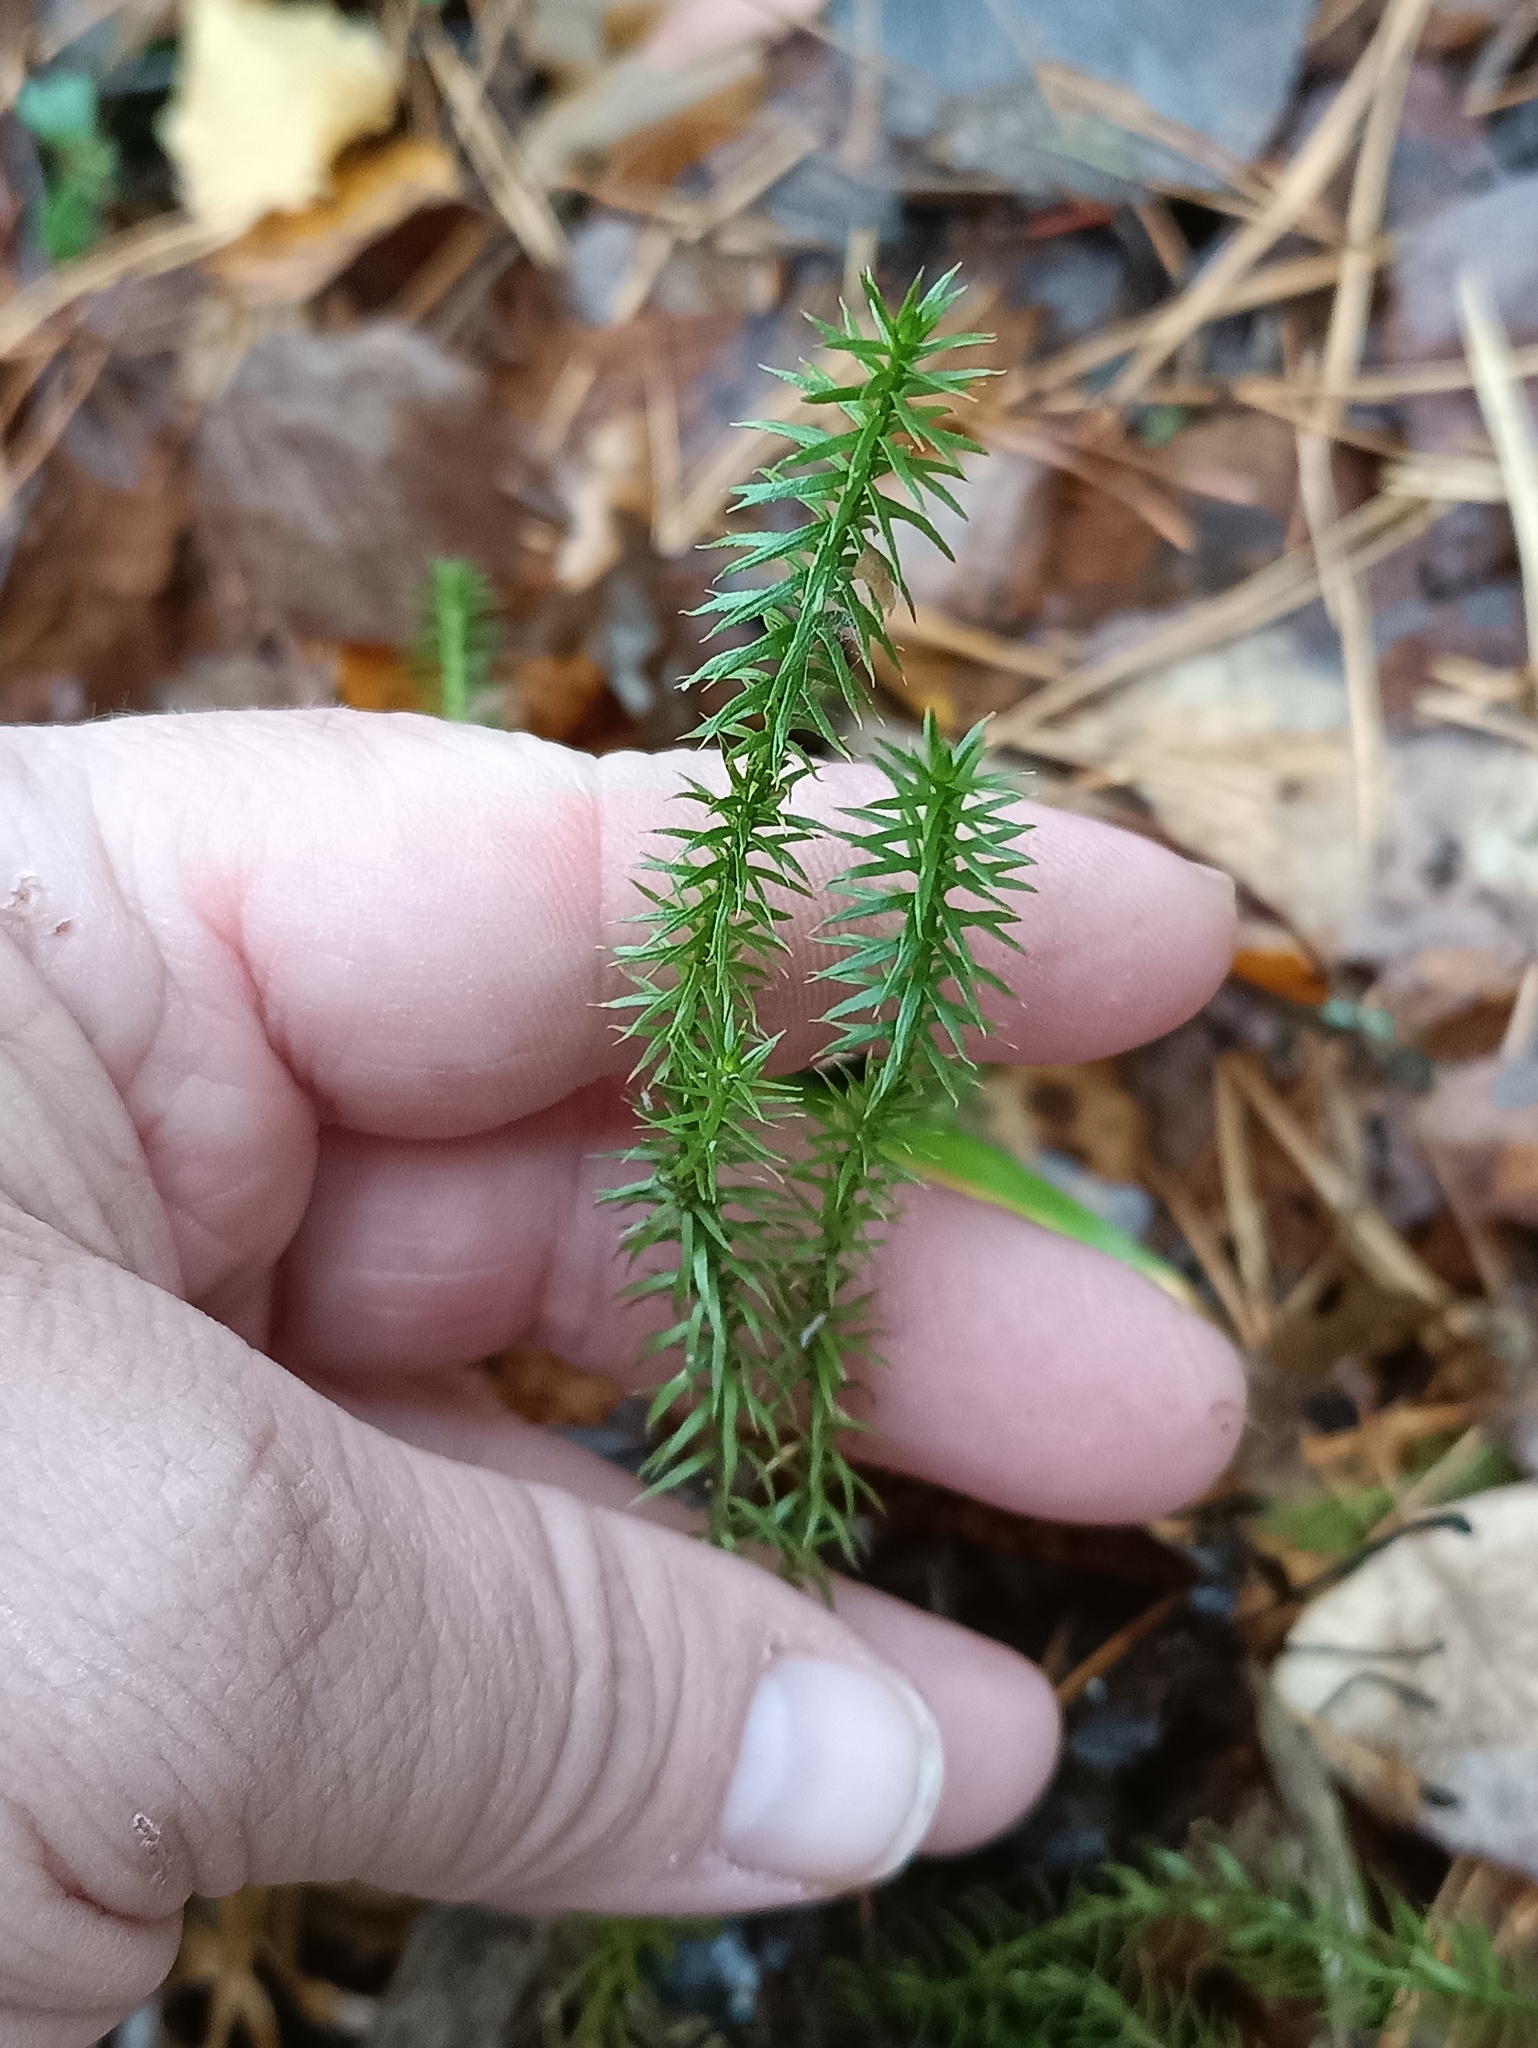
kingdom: Plantae
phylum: Tracheophyta
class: Lycopodiopsida
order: Lycopodiales
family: Lycopodiaceae
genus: Spinulum
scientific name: Spinulum annotinum
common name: Interrupted club-moss
